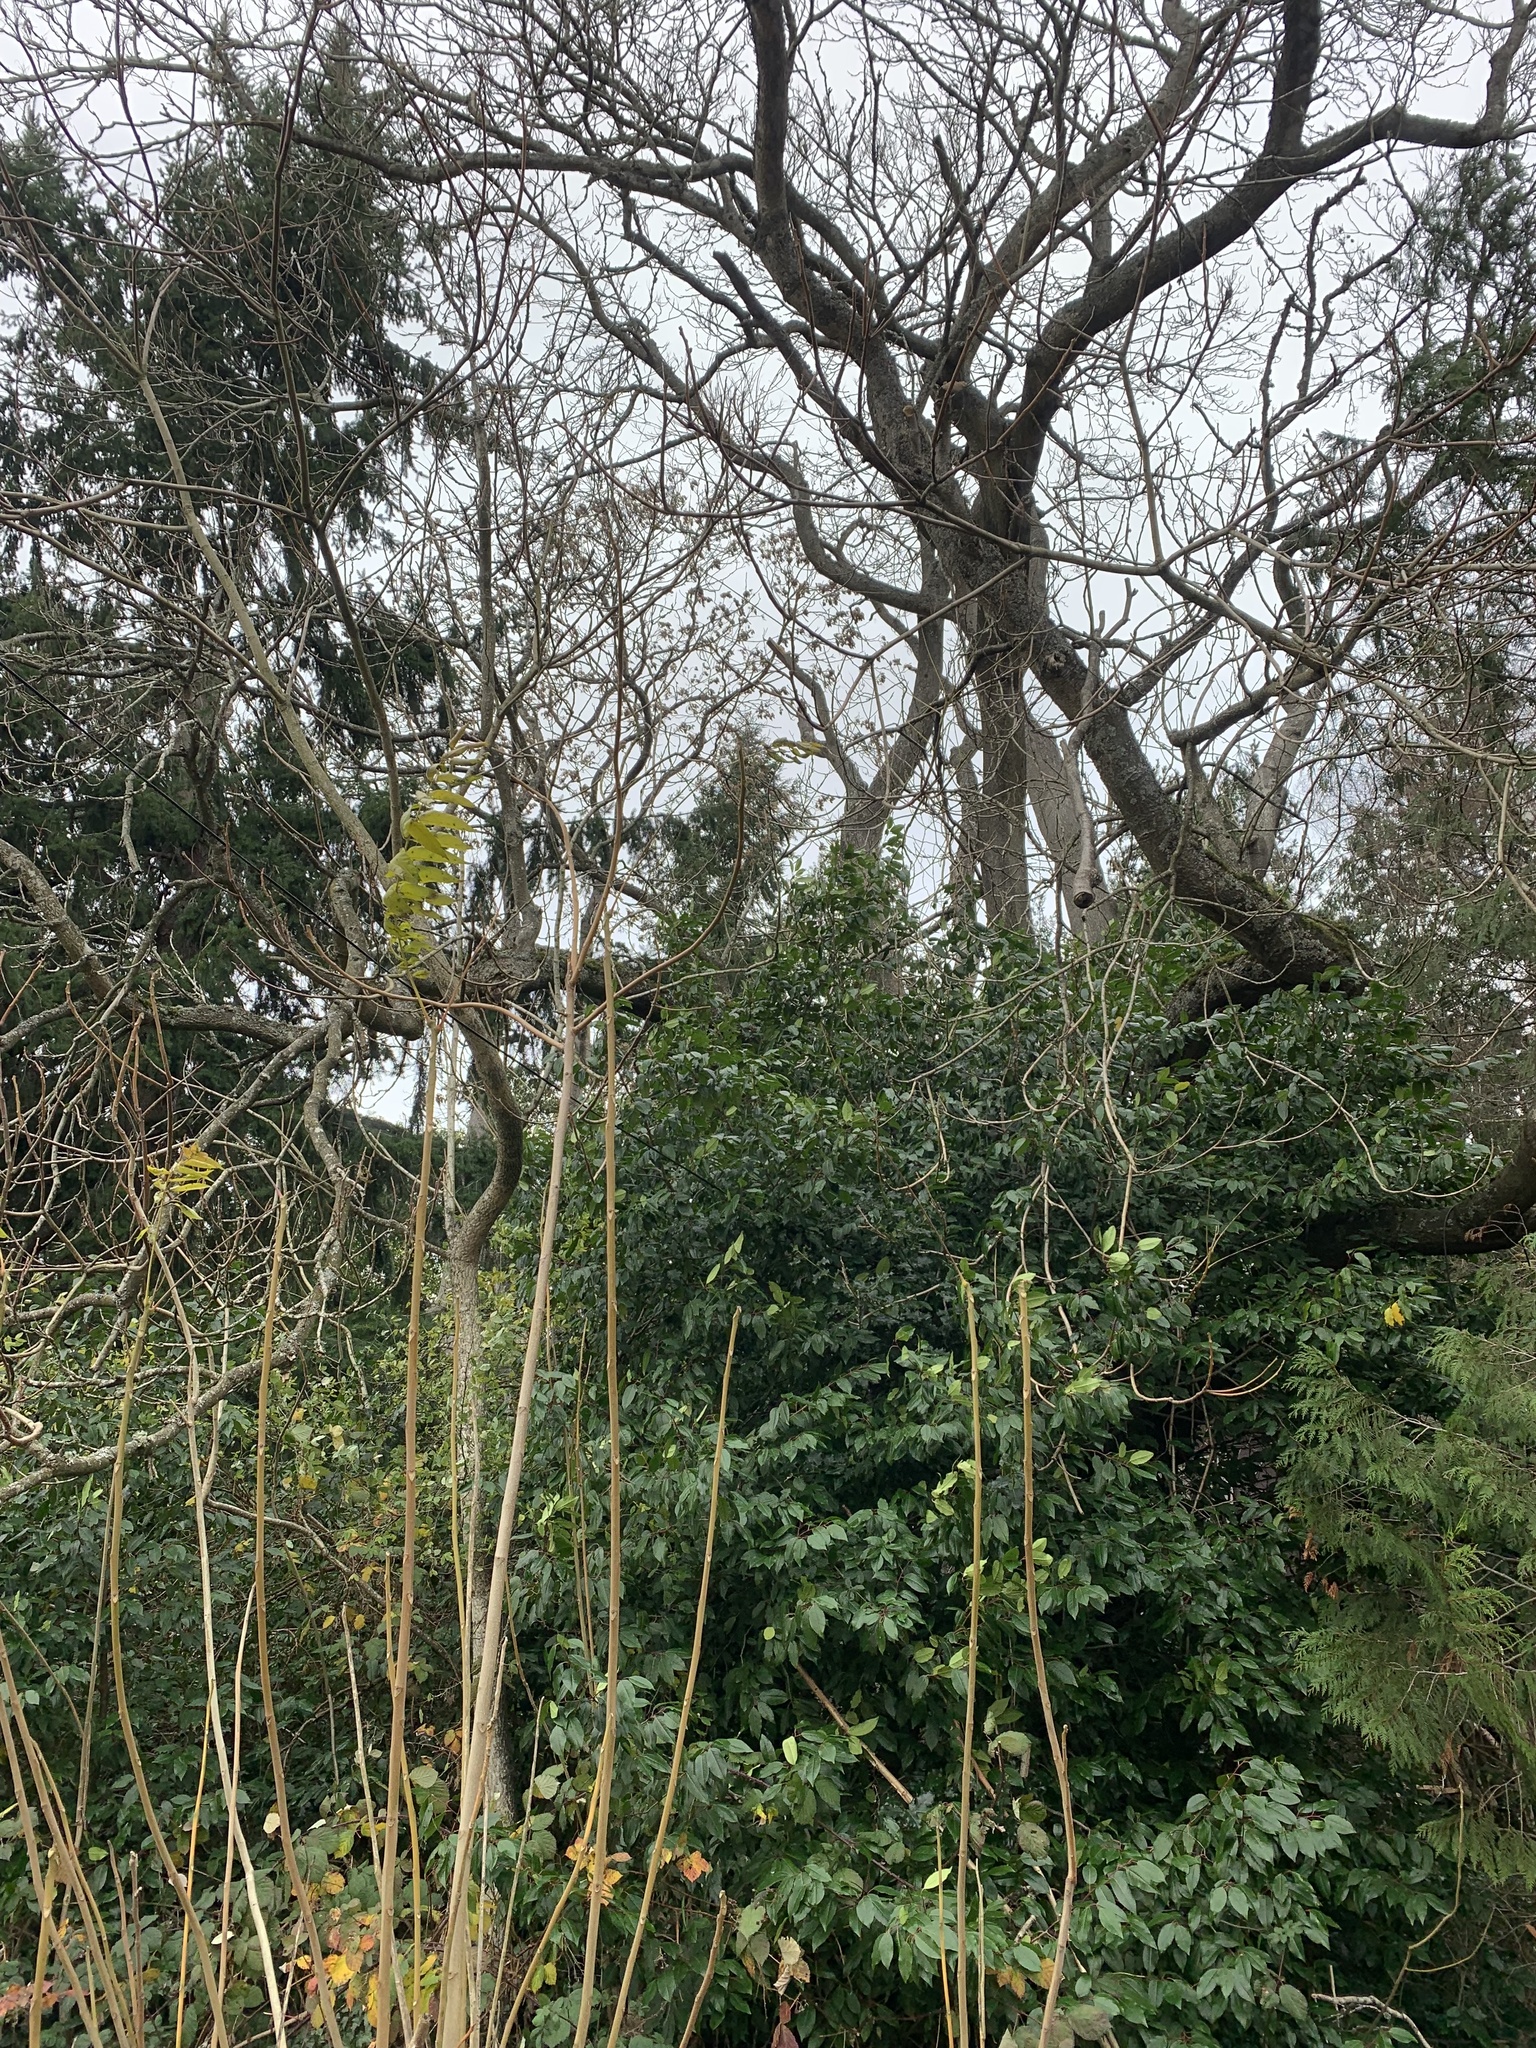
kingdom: Plantae
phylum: Tracheophyta
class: Magnoliopsida
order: Sapindales
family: Simaroubaceae
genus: Ailanthus
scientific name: Ailanthus altissima
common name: Tree-of-heaven
